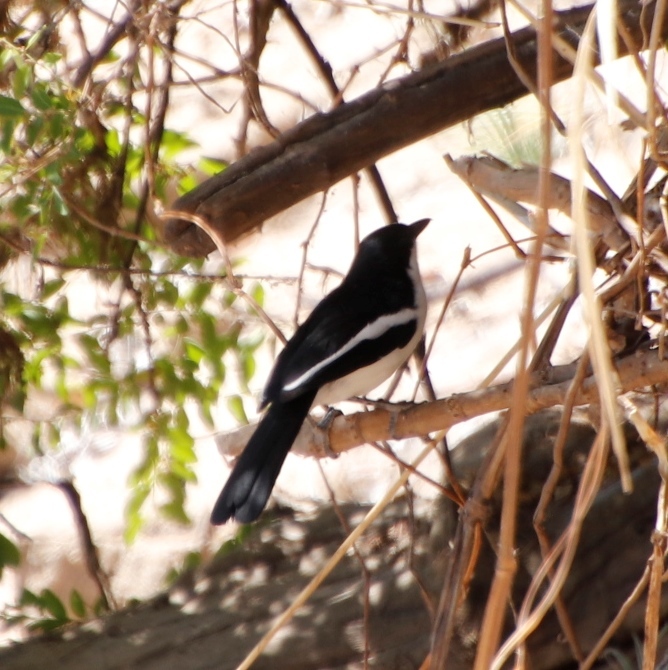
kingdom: Animalia
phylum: Chordata
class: Aves
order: Passeriformes
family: Malaconotidae
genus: Laniarius
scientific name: Laniarius bicolor
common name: Swamp boubou
